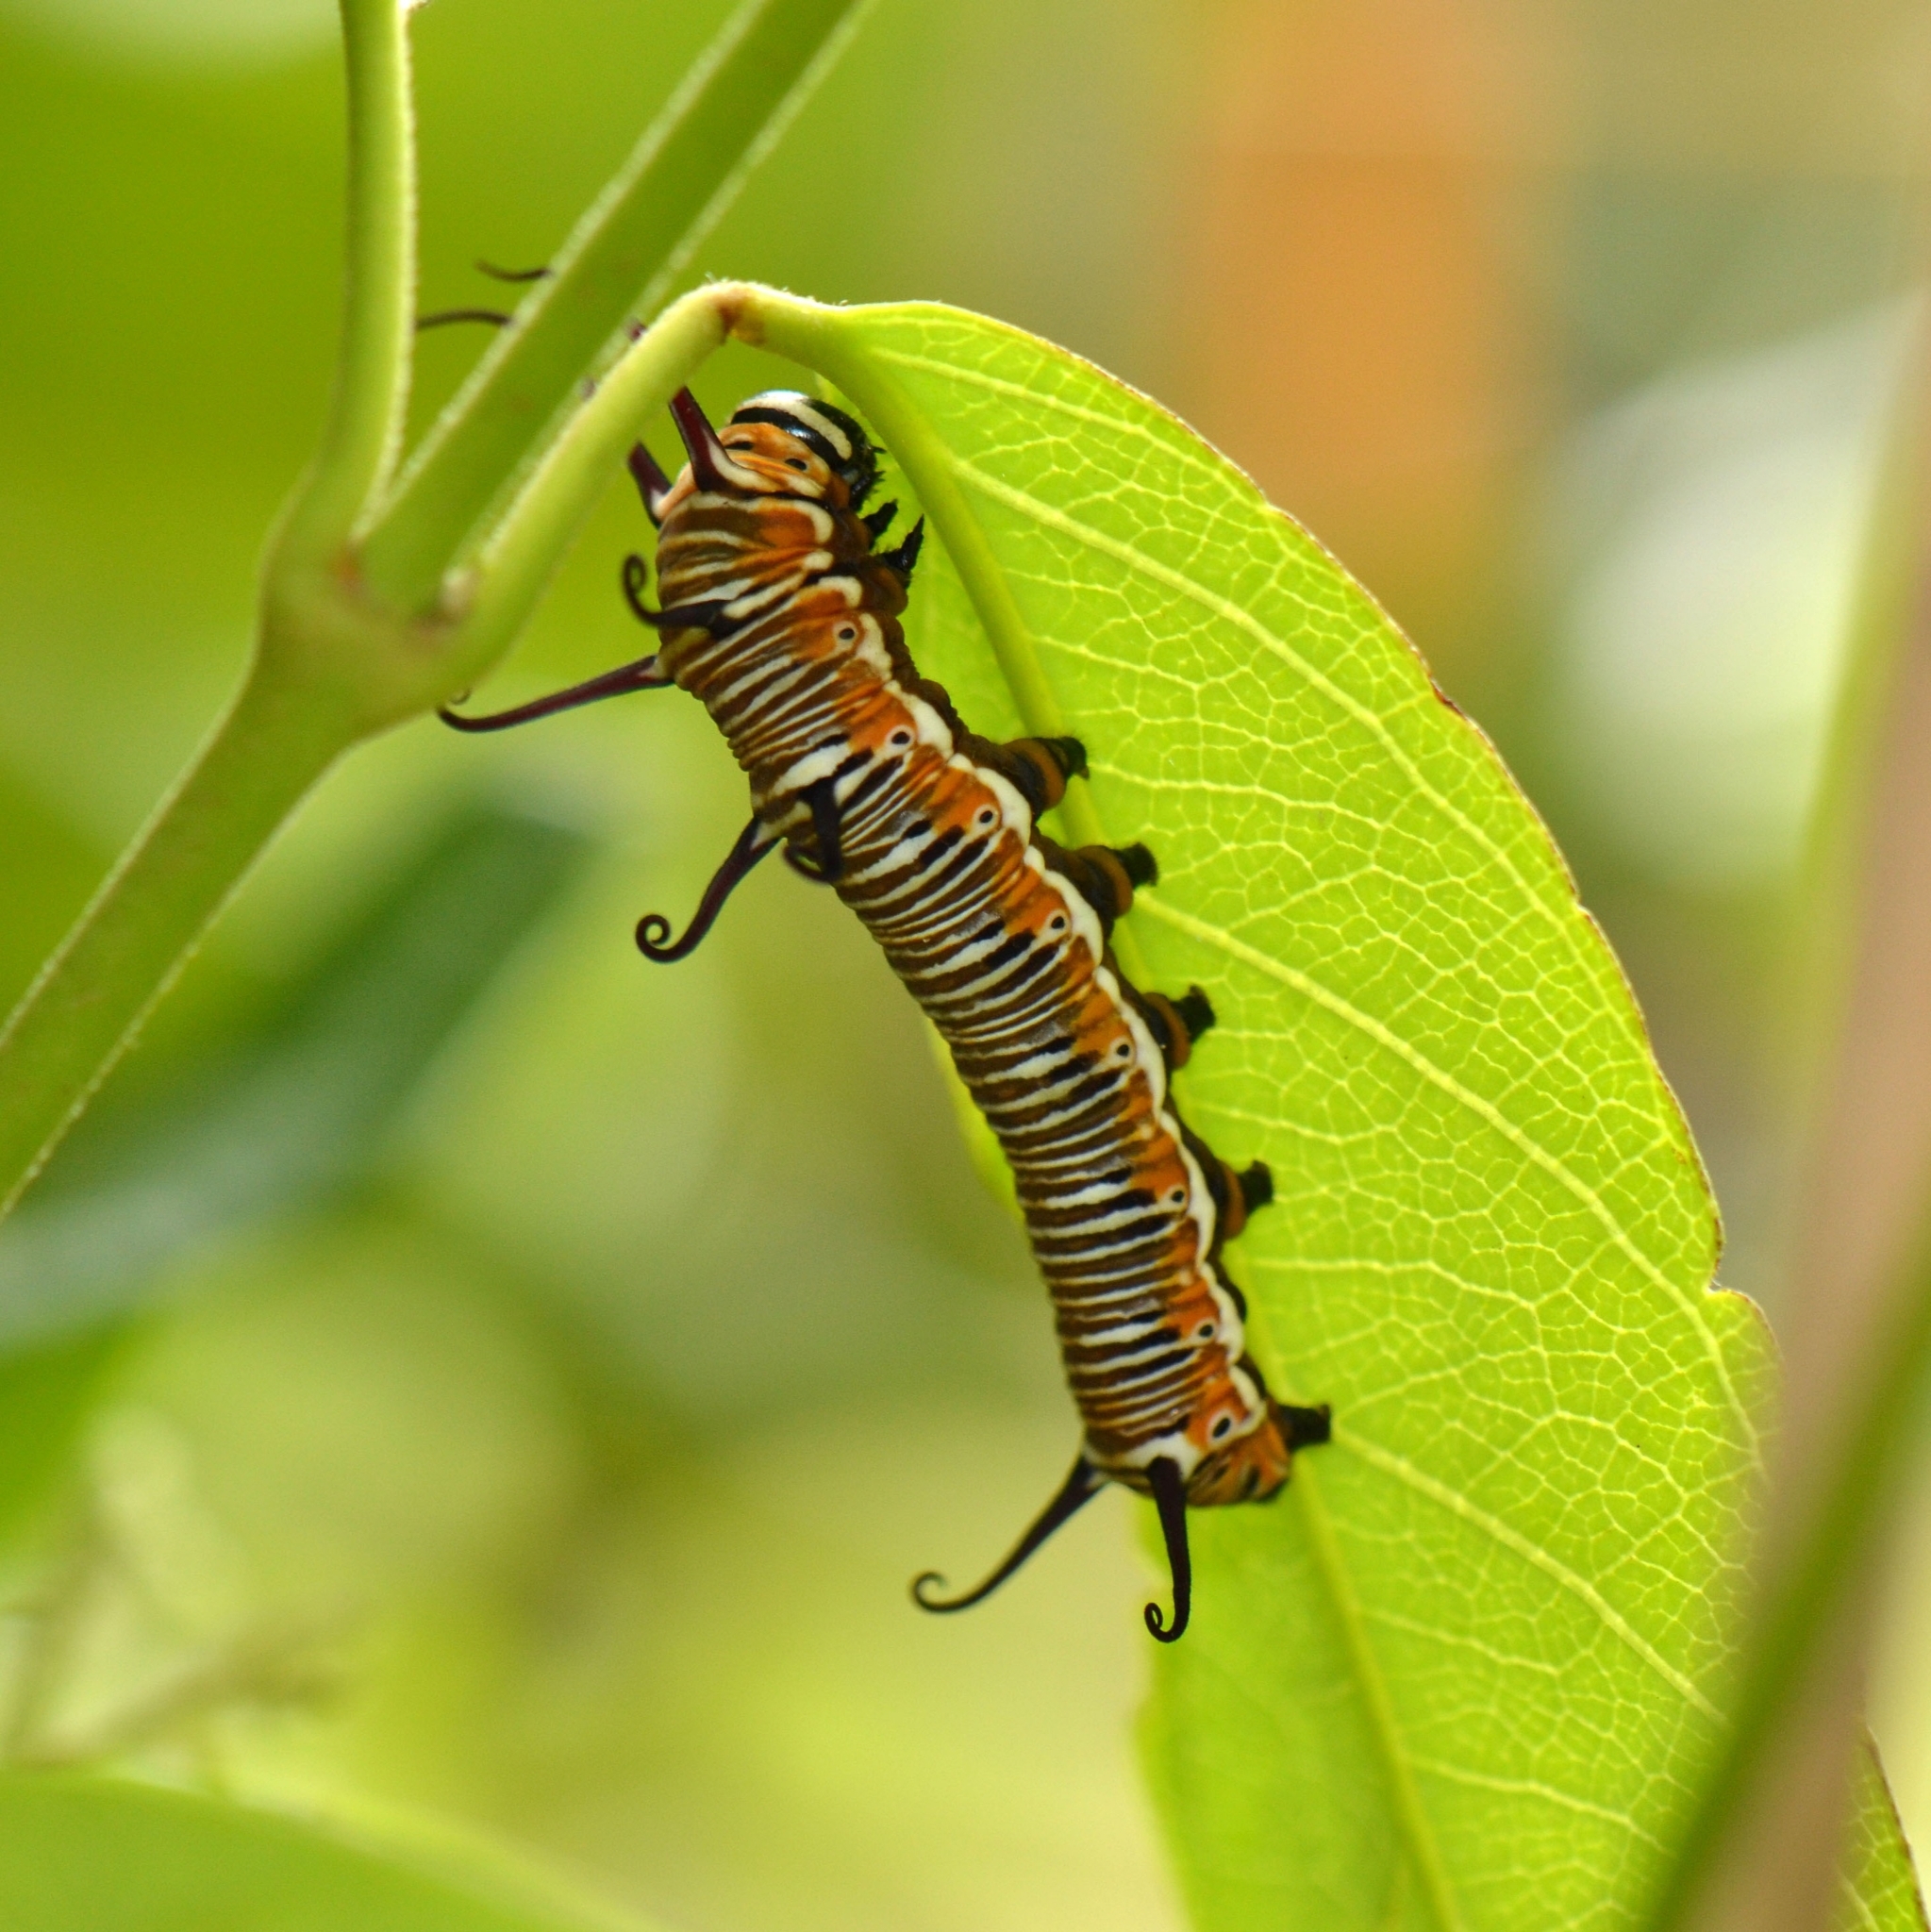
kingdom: Animalia
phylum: Arthropoda
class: Insecta
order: Lepidoptera
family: Nymphalidae
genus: Euploea
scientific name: Euploea core
